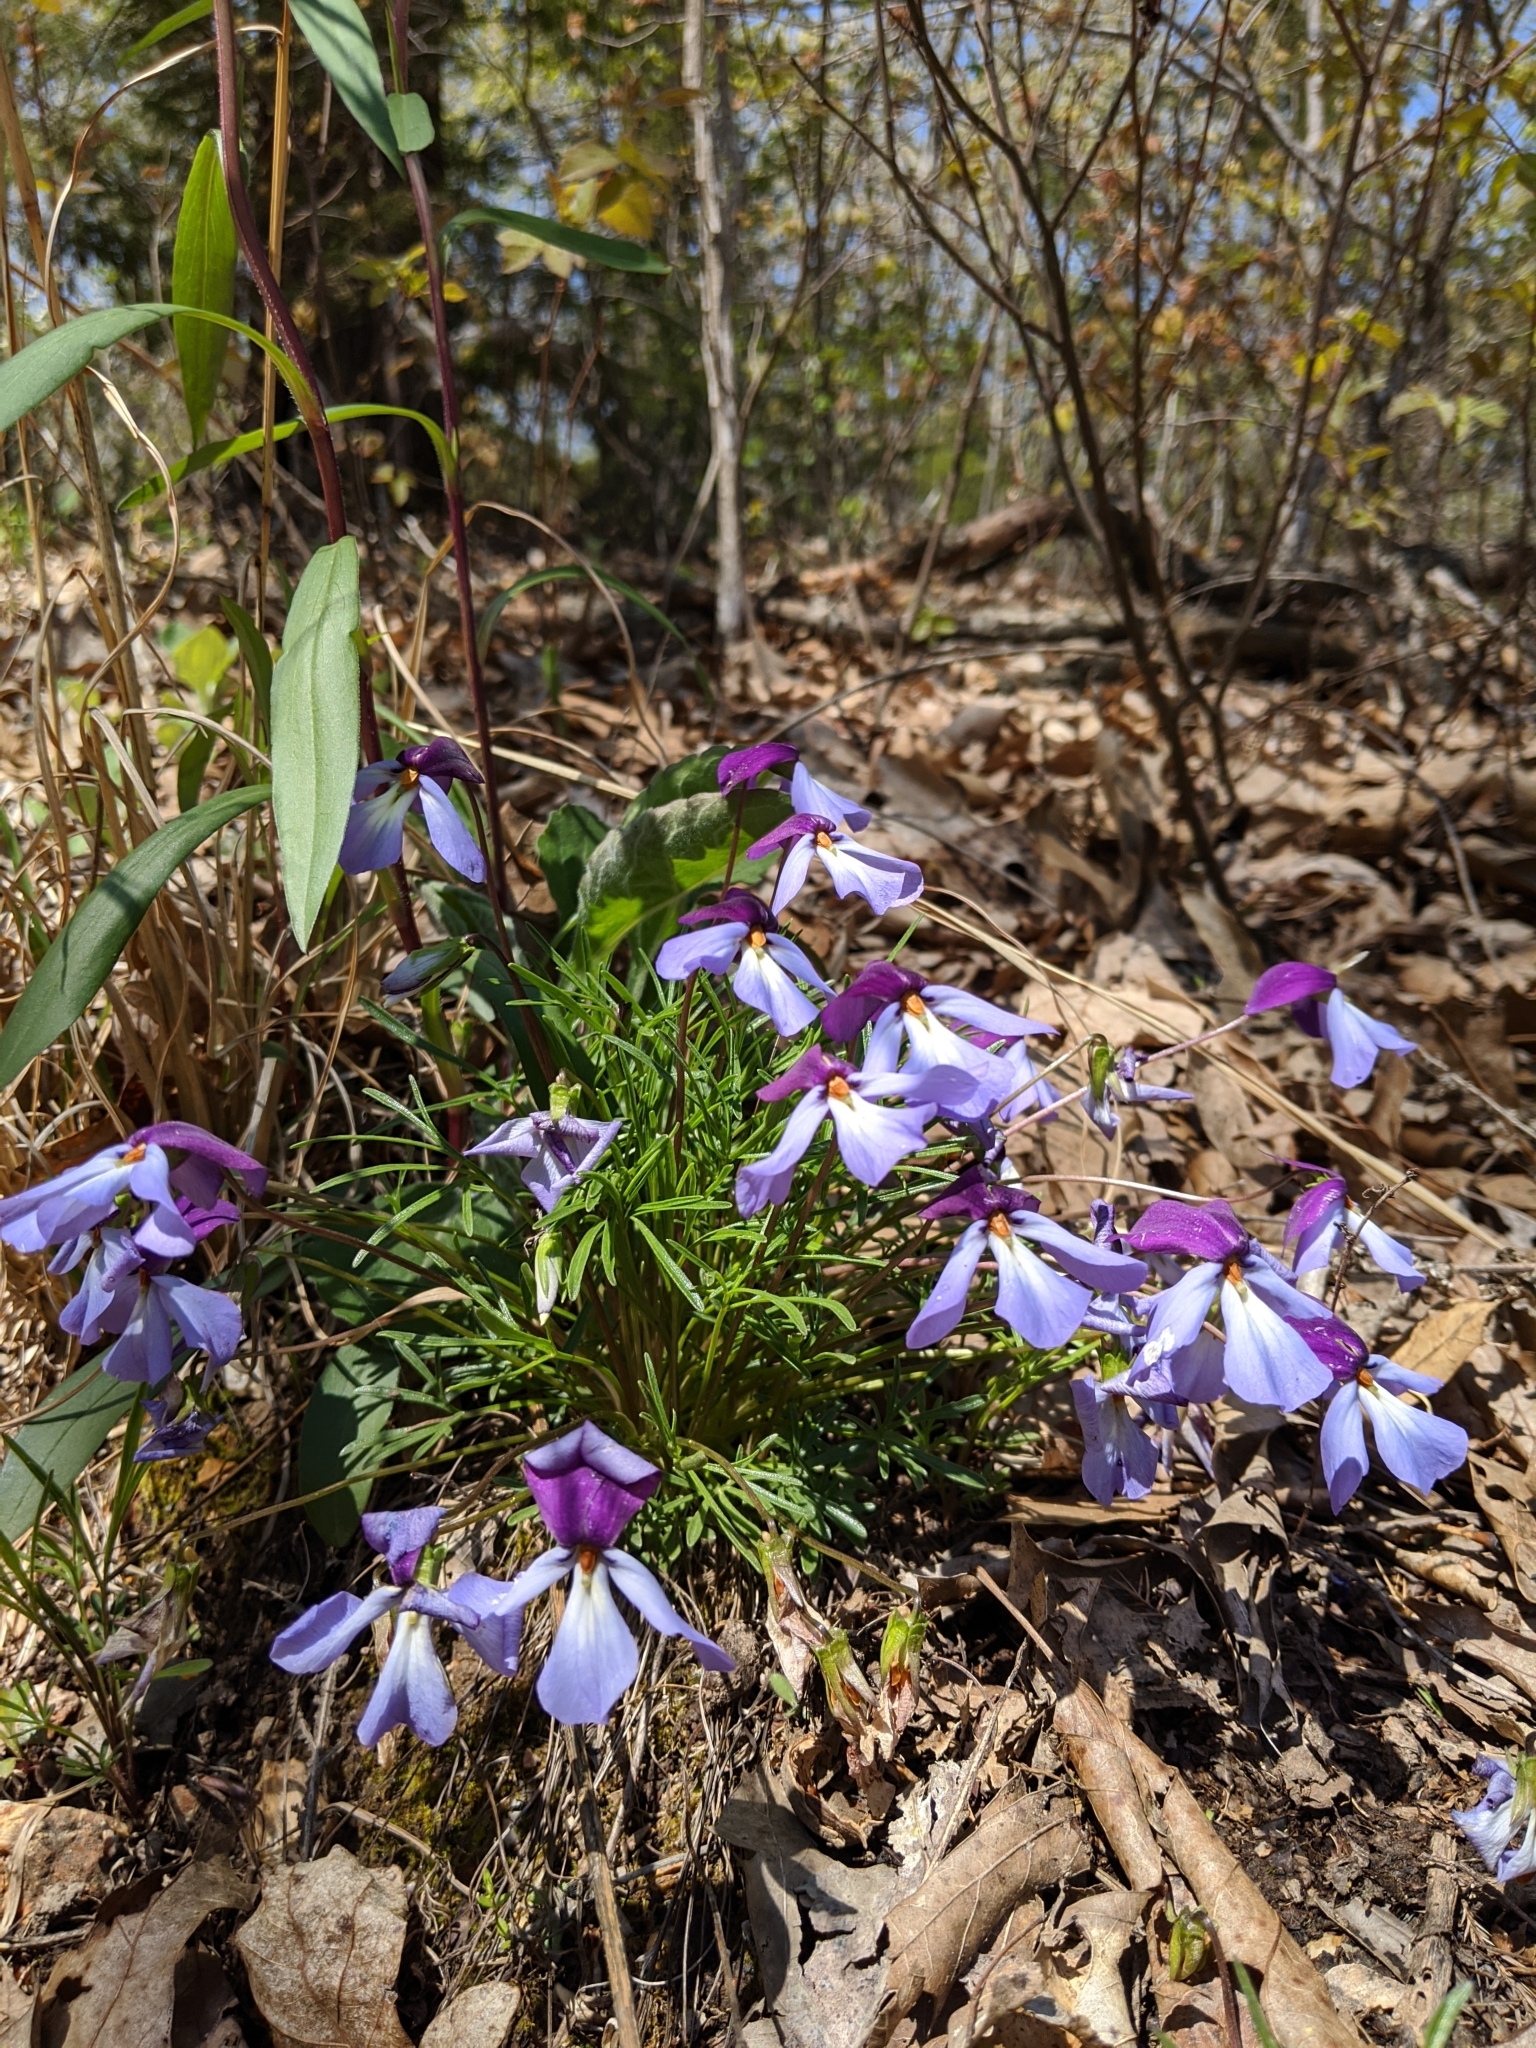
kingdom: Plantae
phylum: Tracheophyta
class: Magnoliopsida
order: Malpighiales
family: Violaceae
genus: Viola
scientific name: Viola pedata
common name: Pansy violet
